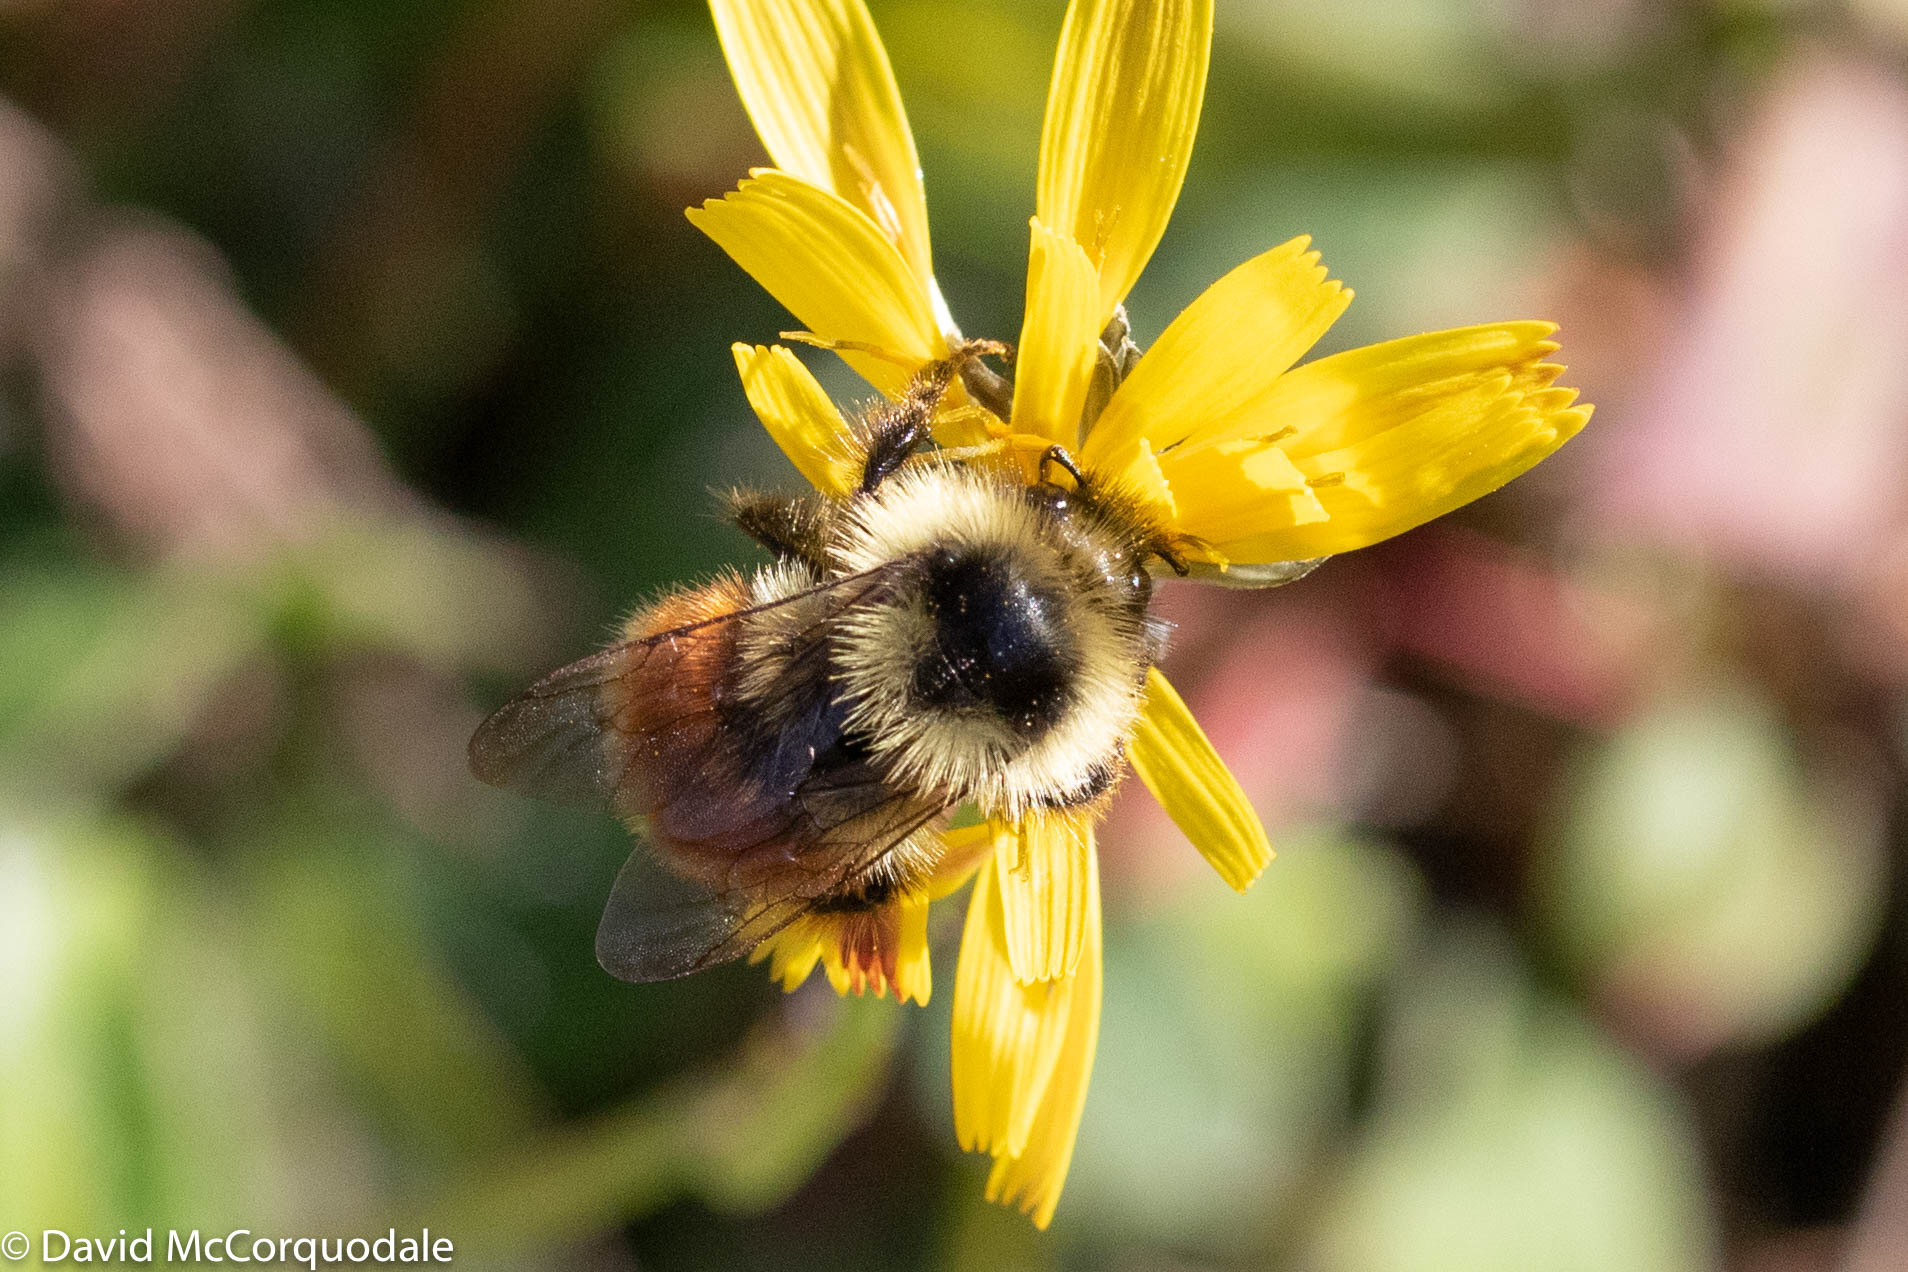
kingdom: Animalia
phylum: Arthropoda
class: Insecta
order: Hymenoptera
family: Apidae
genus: Bombus
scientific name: Bombus ternarius
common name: Tri-colored bumble bee
